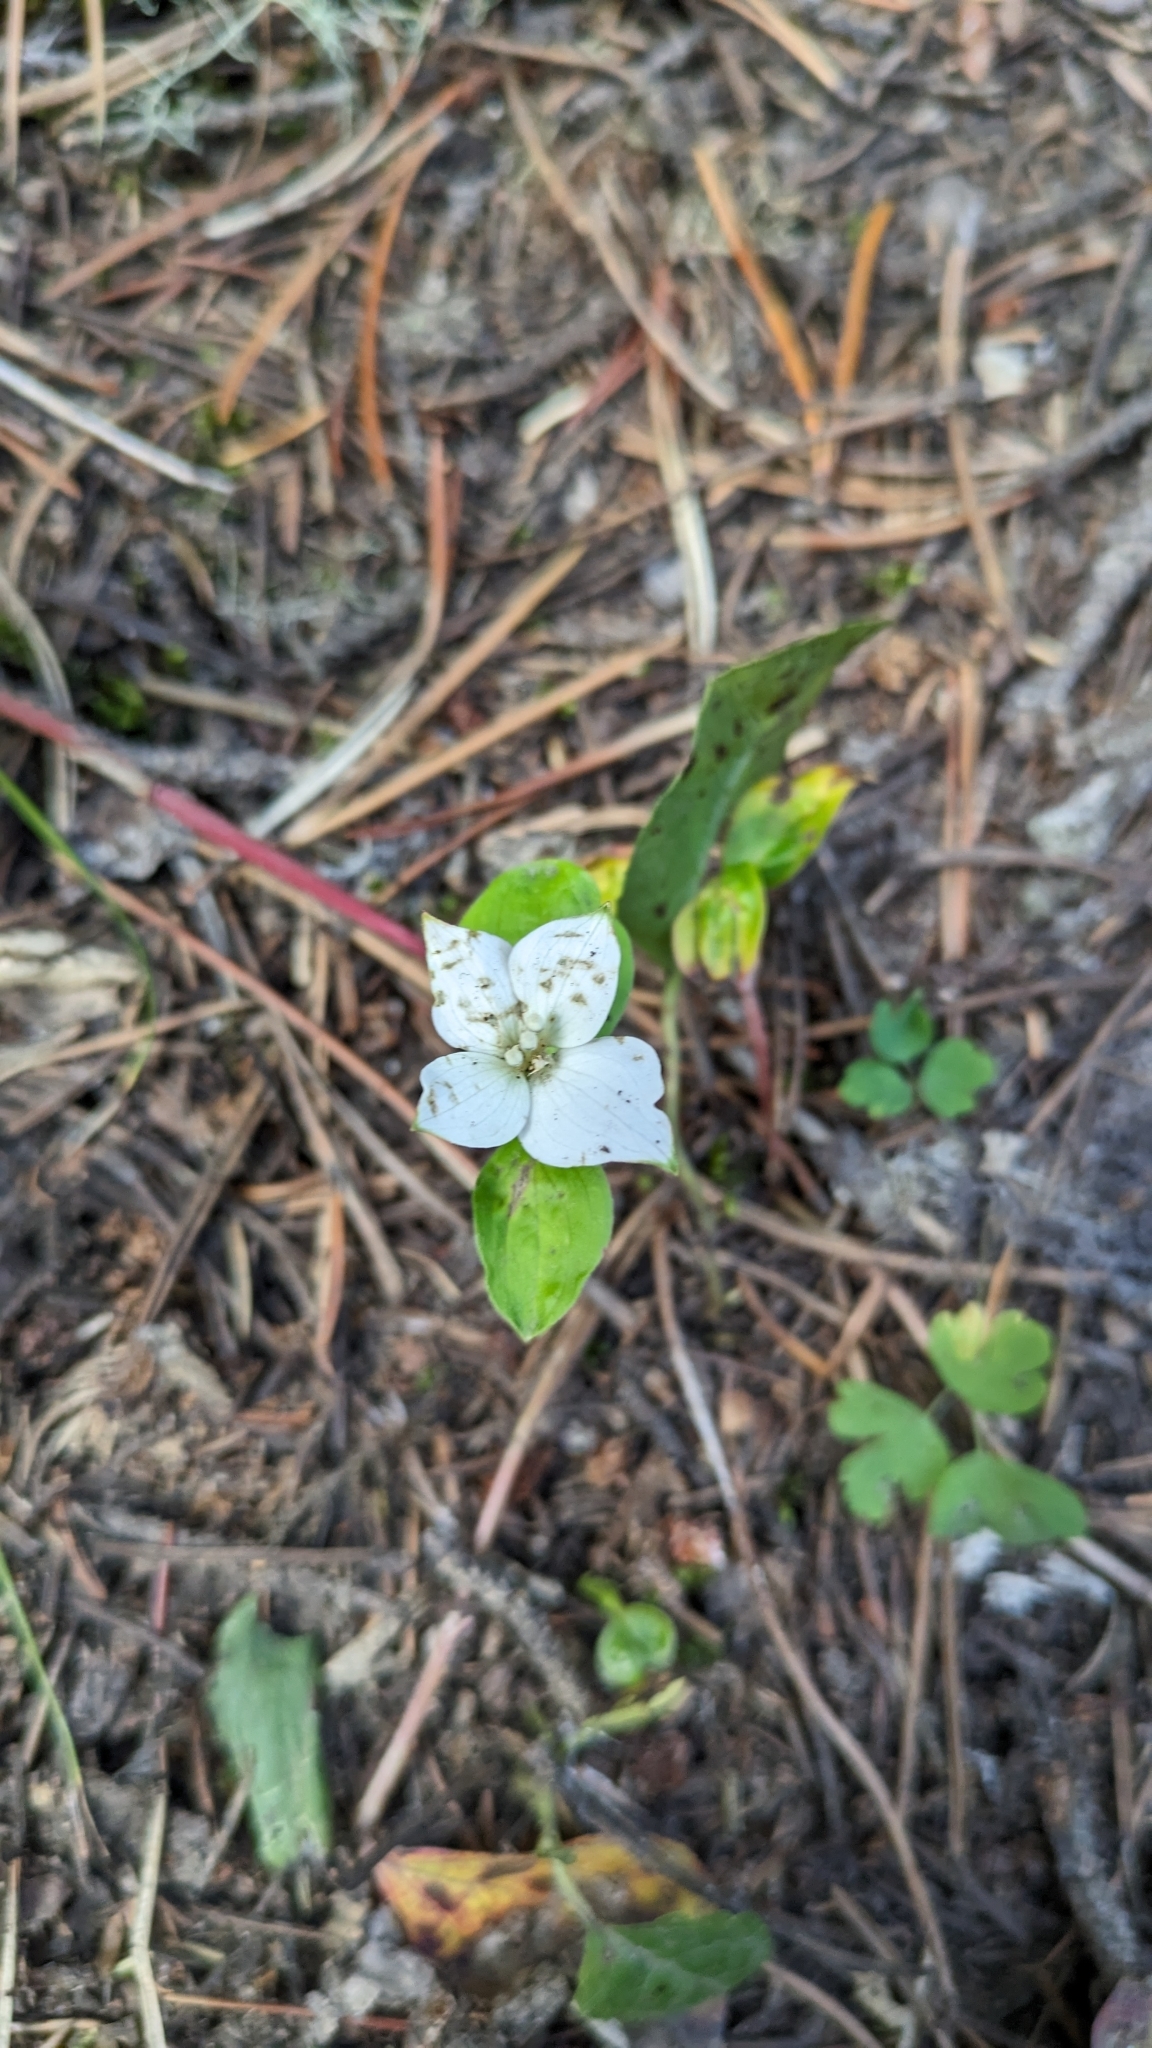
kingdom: Plantae
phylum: Tracheophyta
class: Magnoliopsida
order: Cornales
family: Cornaceae
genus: Cornus
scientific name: Cornus canadensis
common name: Creeping dogwood
